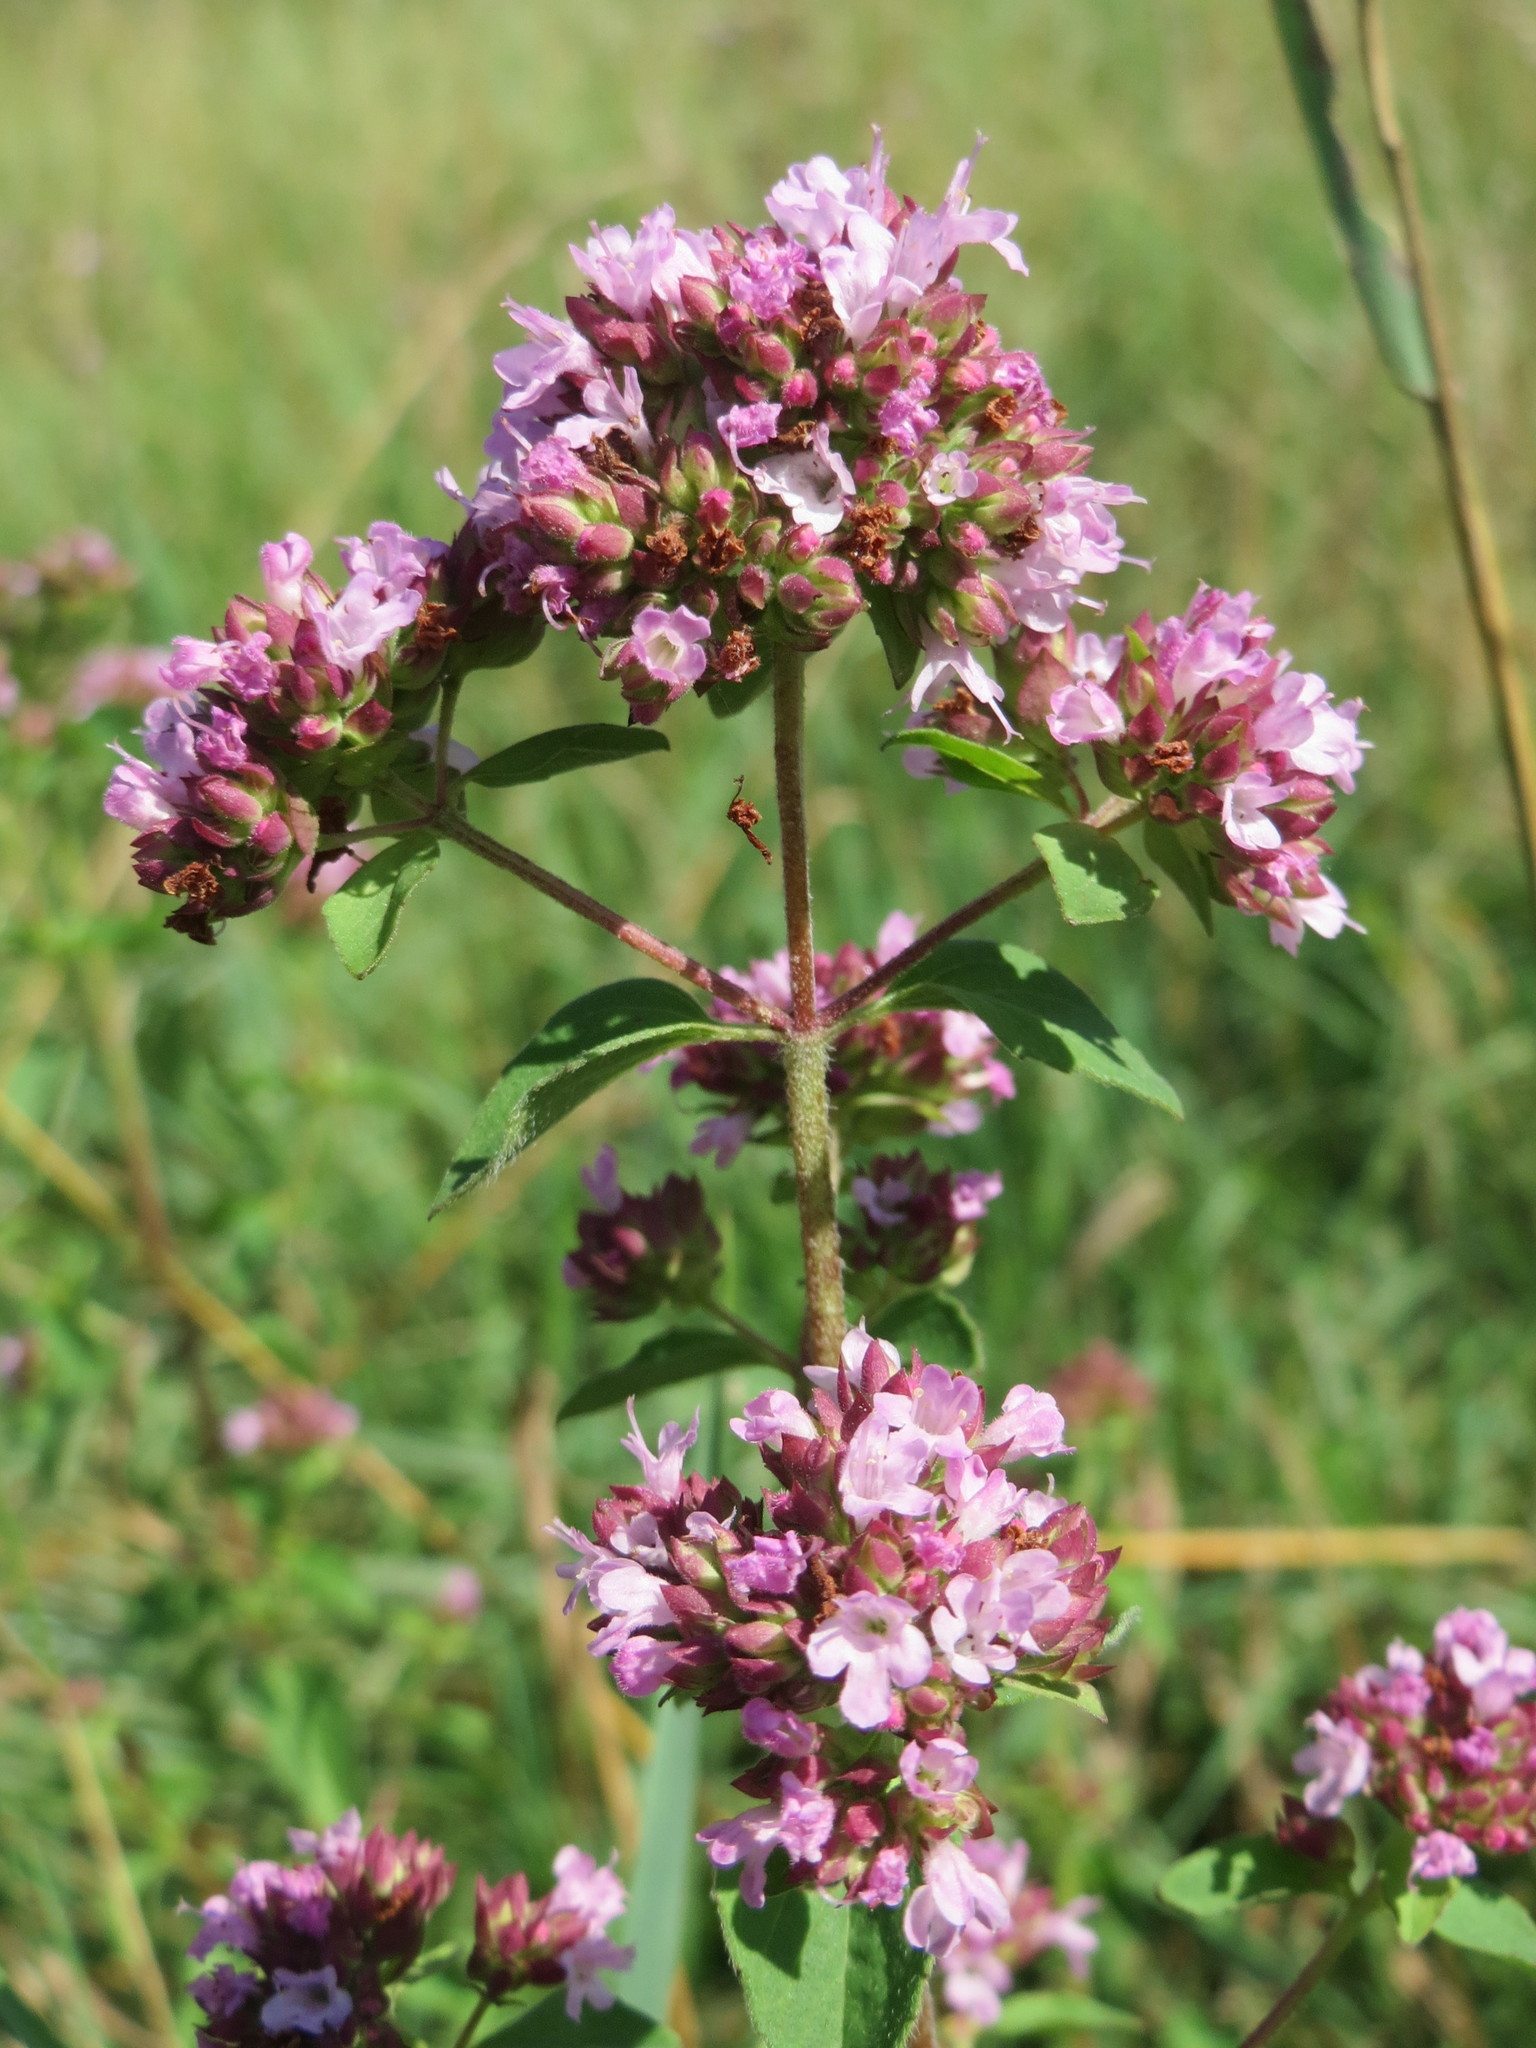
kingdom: Plantae
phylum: Tracheophyta
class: Magnoliopsida
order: Lamiales
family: Lamiaceae
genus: Origanum
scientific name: Origanum vulgare
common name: Wild marjoram
